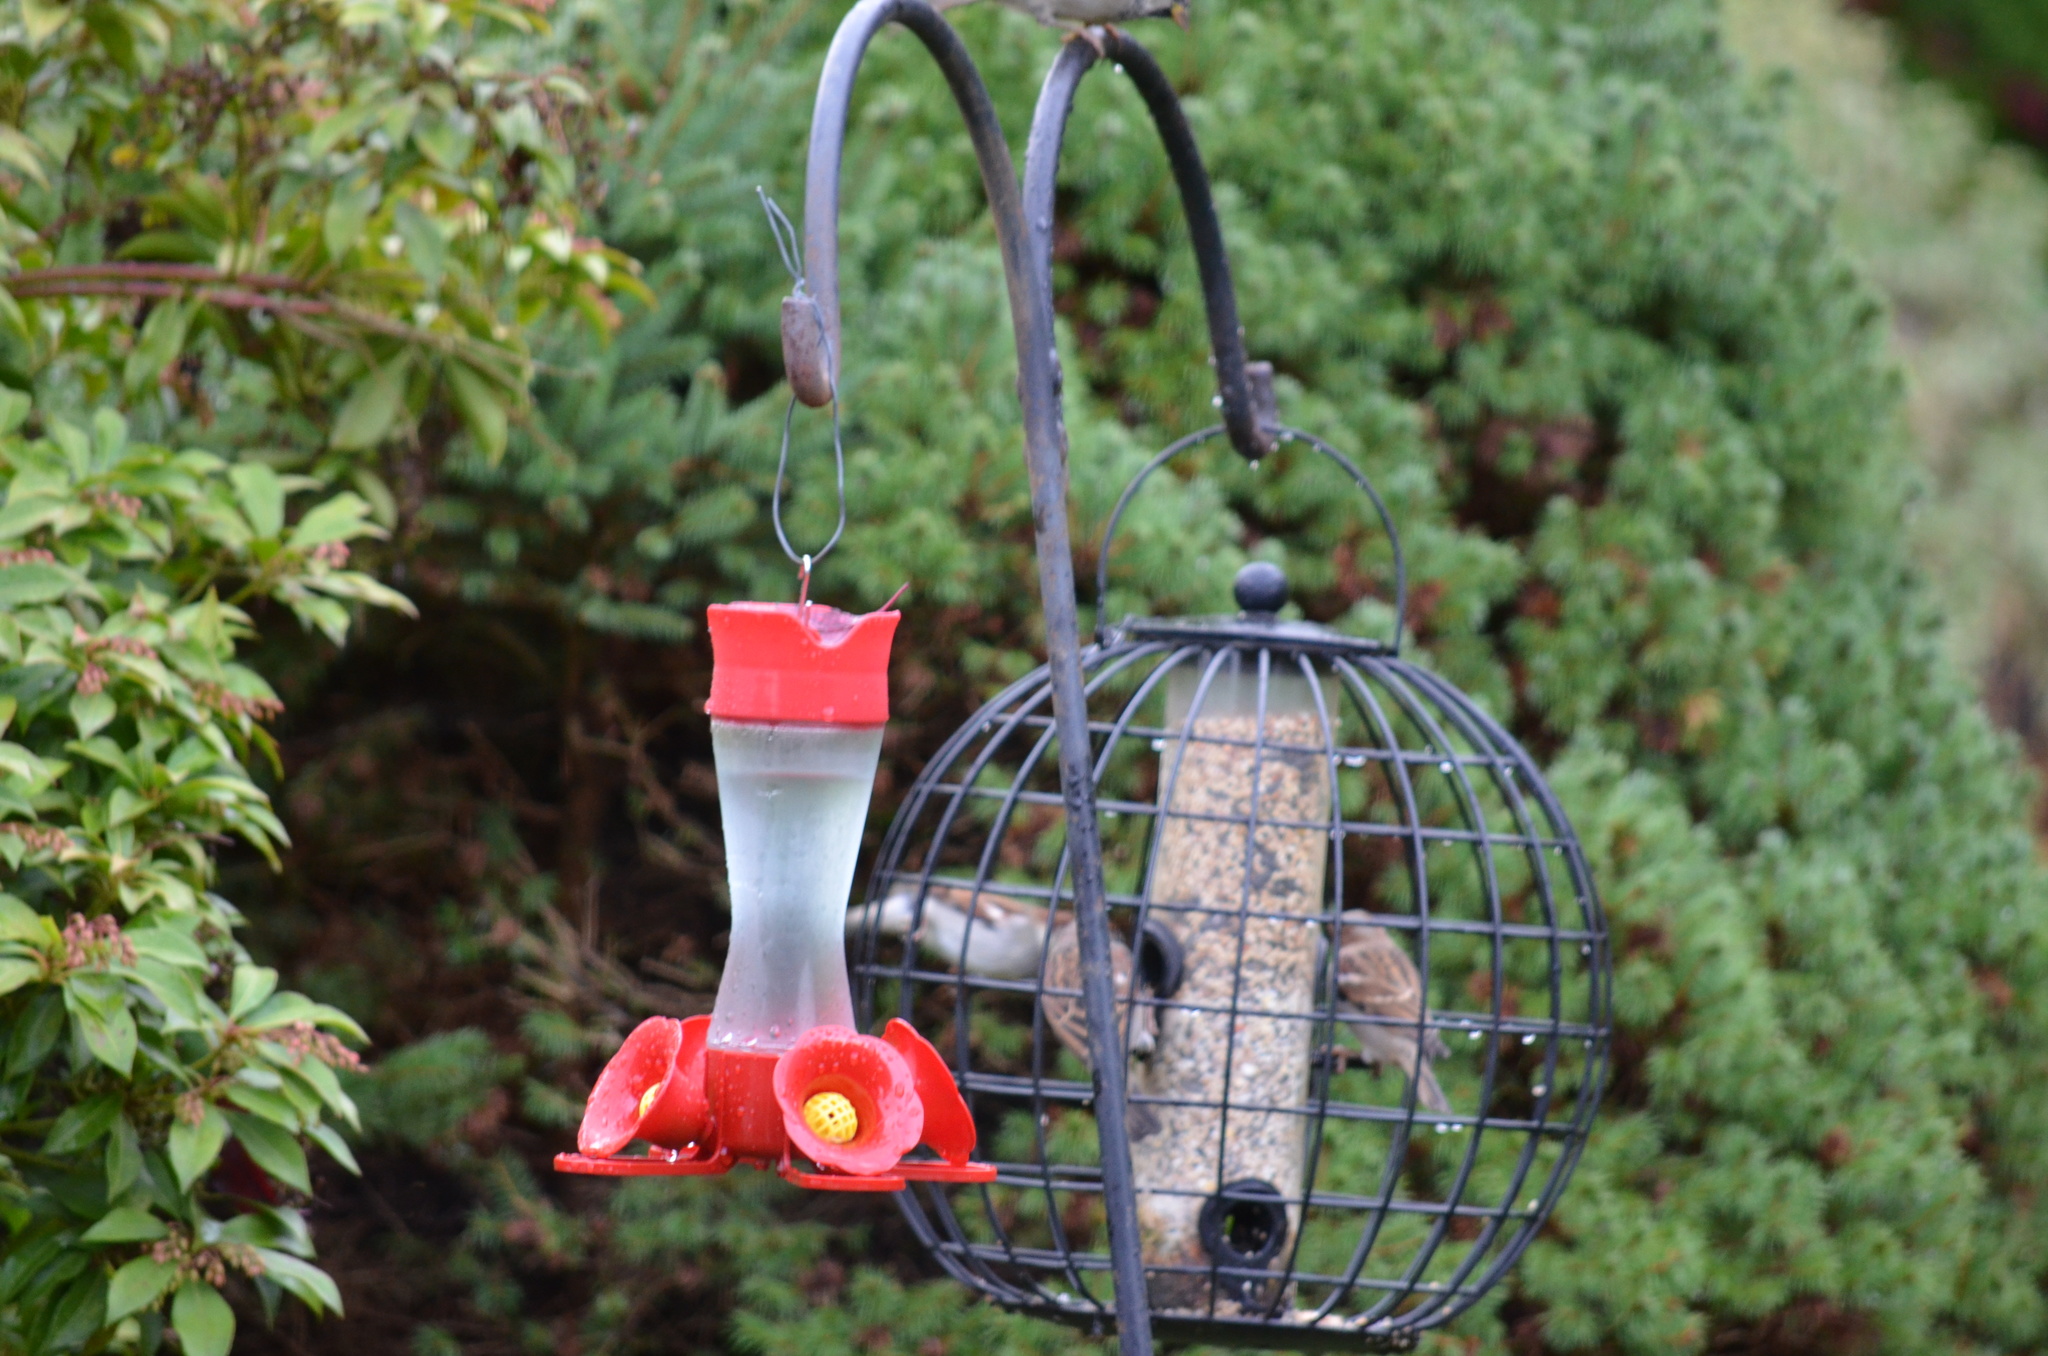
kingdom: Animalia
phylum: Chordata
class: Aves
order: Passeriformes
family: Passeridae
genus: Passer
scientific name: Passer domesticus
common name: House sparrow
